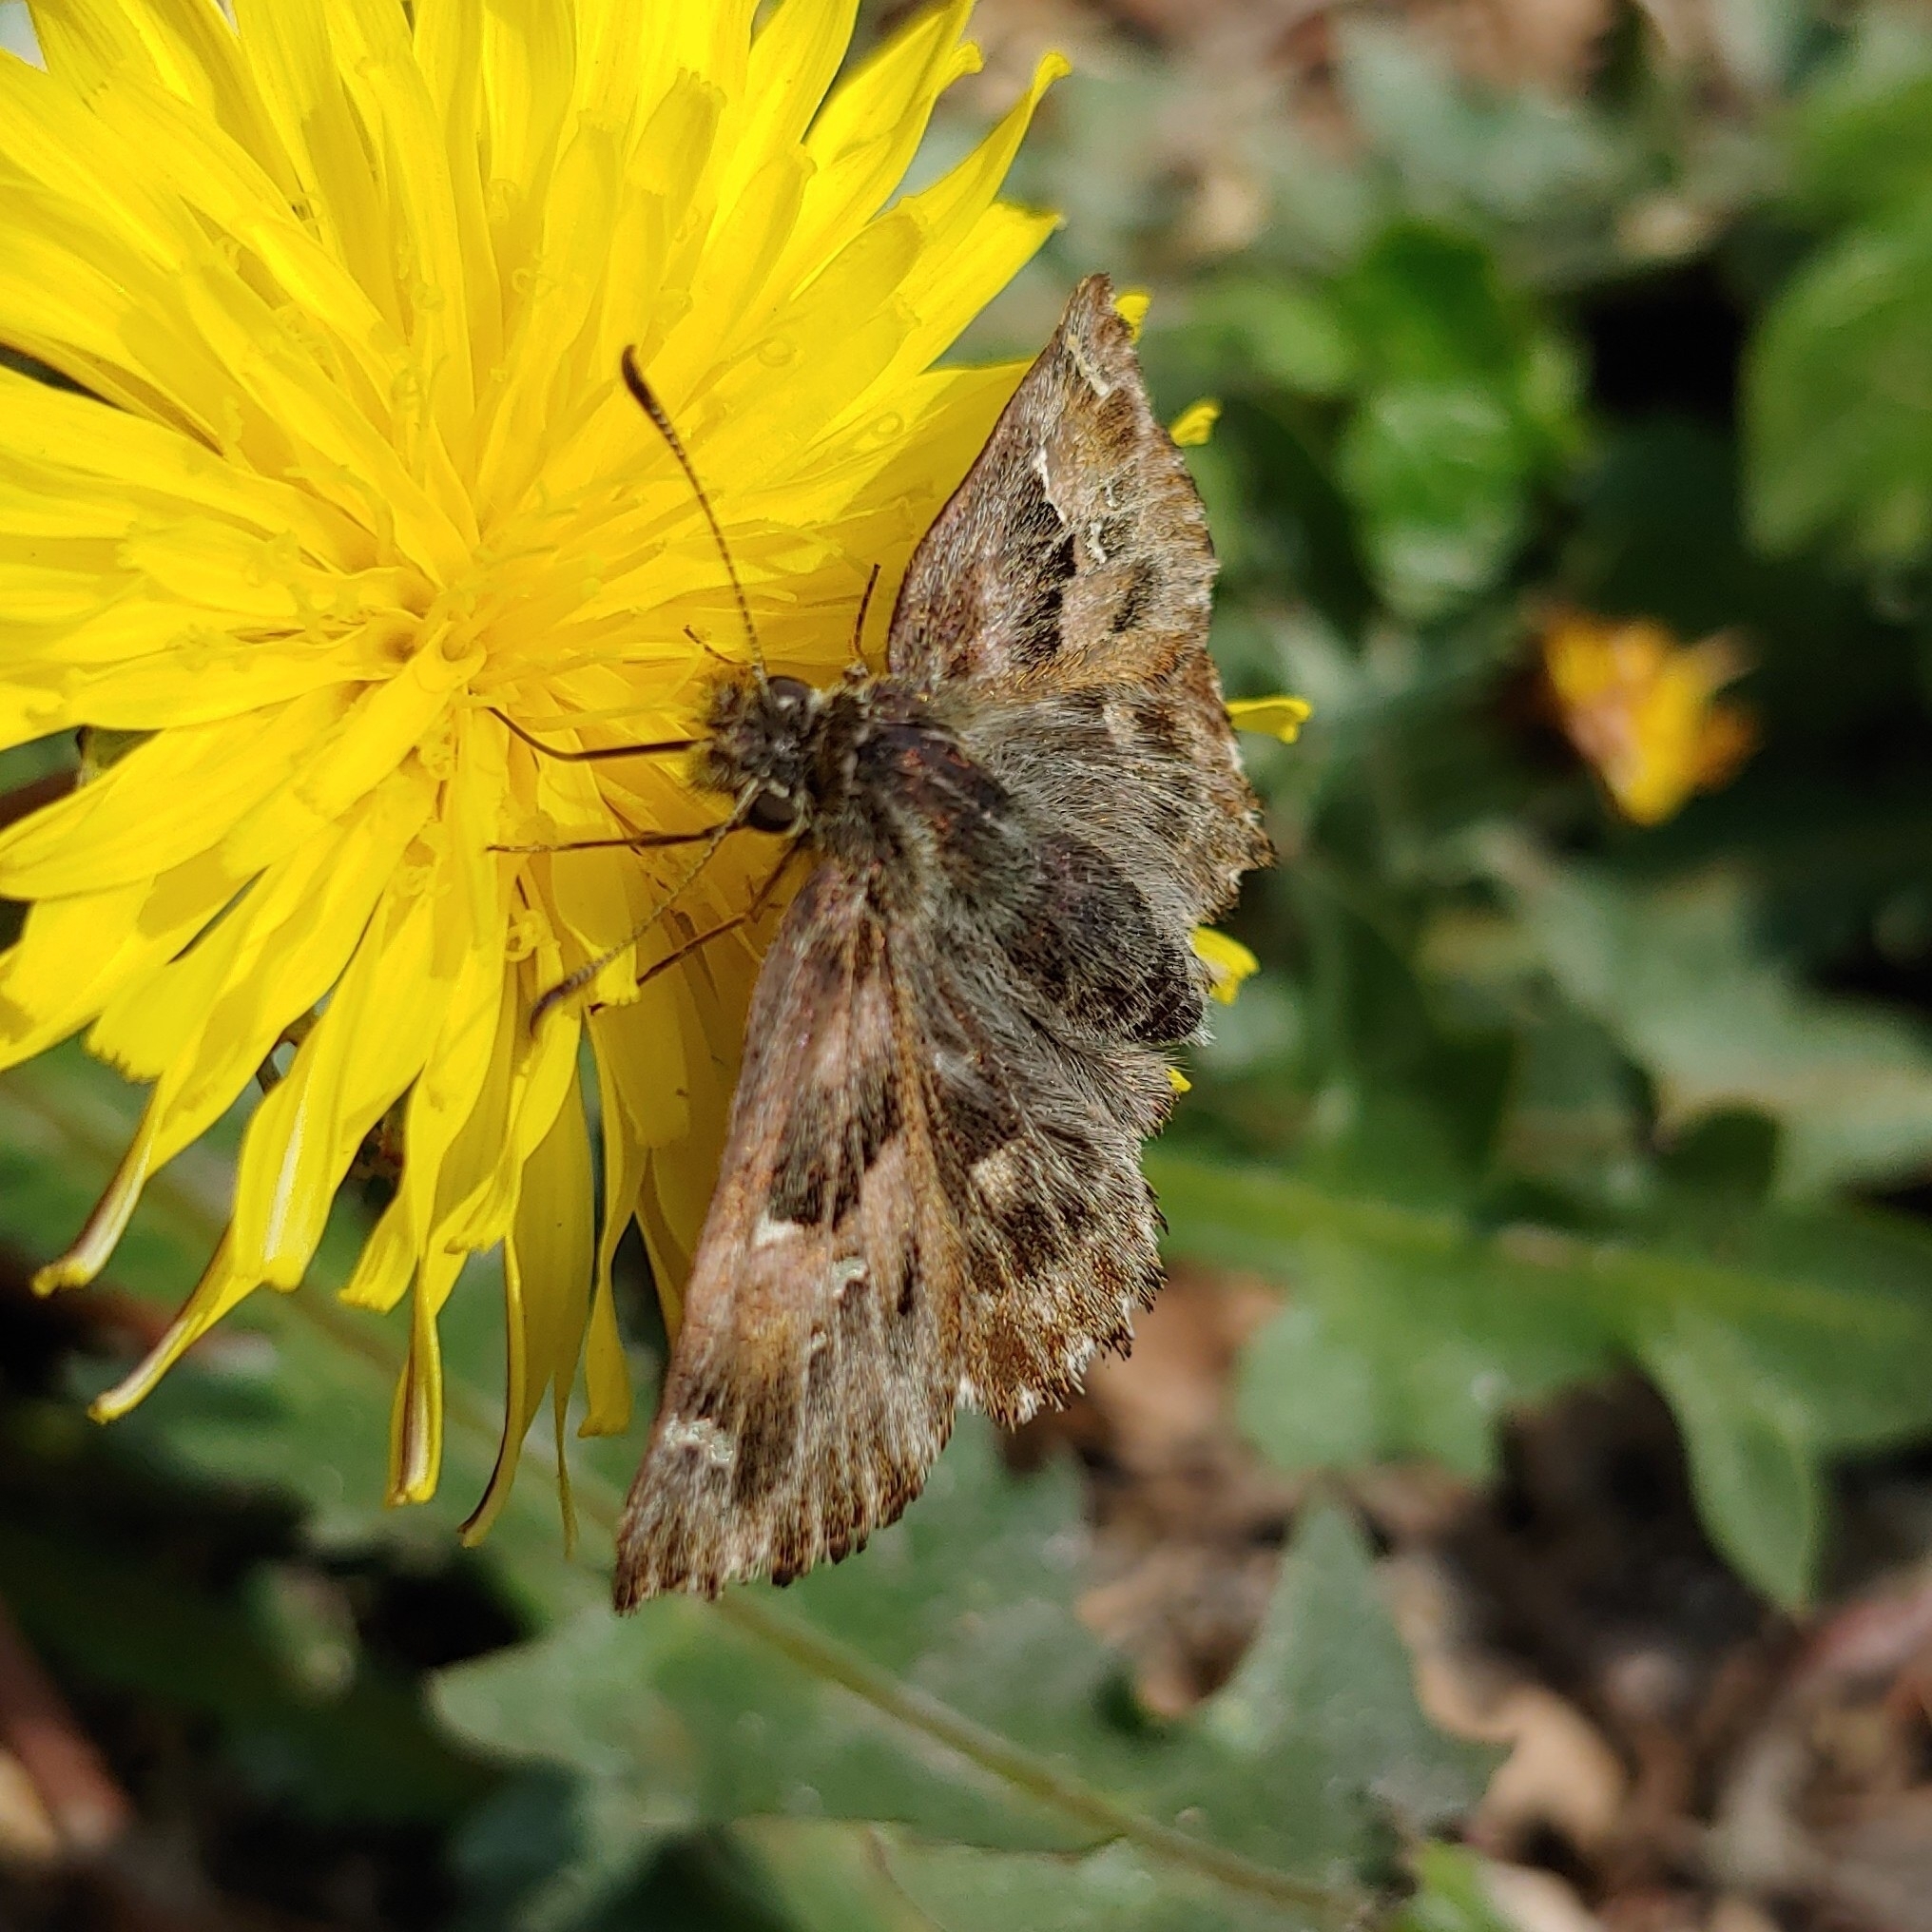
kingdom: Animalia
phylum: Arthropoda
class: Insecta
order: Lepidoptera
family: Hesperiidae
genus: Carcharodus
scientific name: Carcharodus alceae
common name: Mallow skipper
